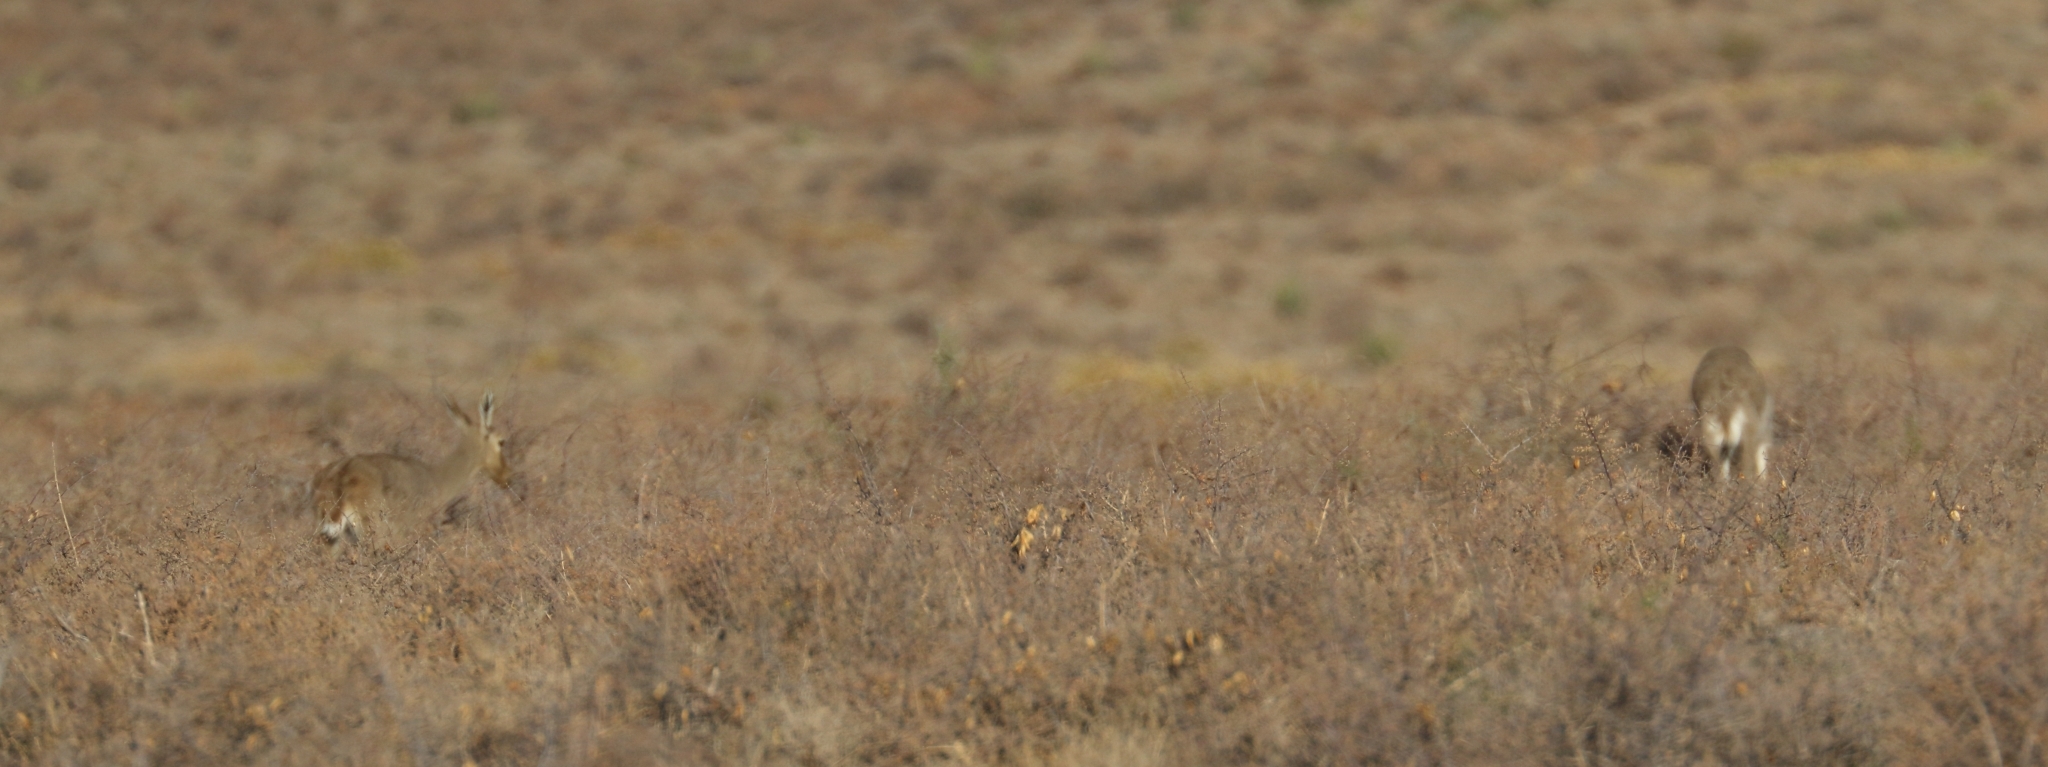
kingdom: Animalia
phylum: Chordata
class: Mammalia
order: Artiodactyla
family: Bovidae
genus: Pelea
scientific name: Pelea capreolus
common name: Common rhebok
